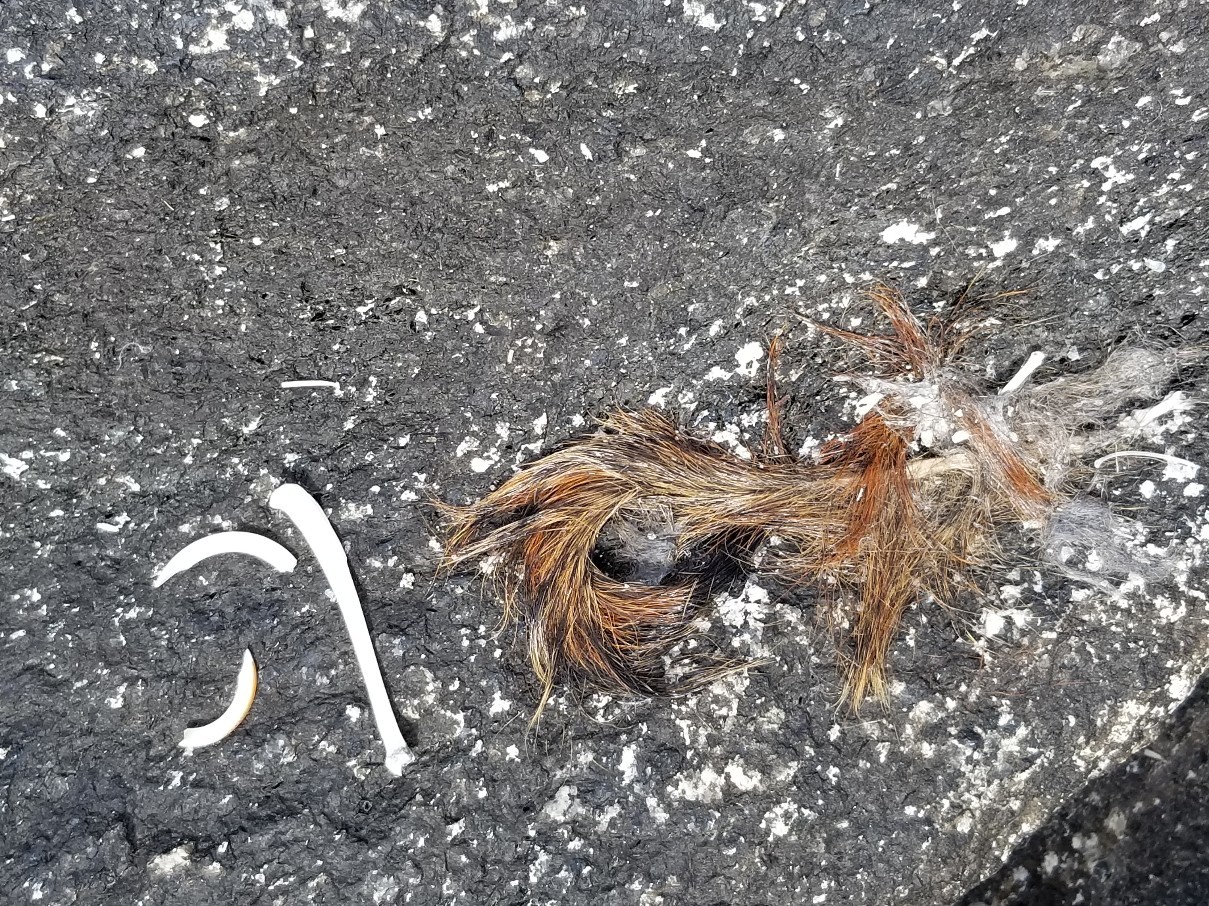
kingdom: Animalia
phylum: Chordata
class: Mammalia
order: Rodentia
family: Sciuridae
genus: Tamiasciurus
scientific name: Tamiasciurus hudsonicus
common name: Red squirrel
